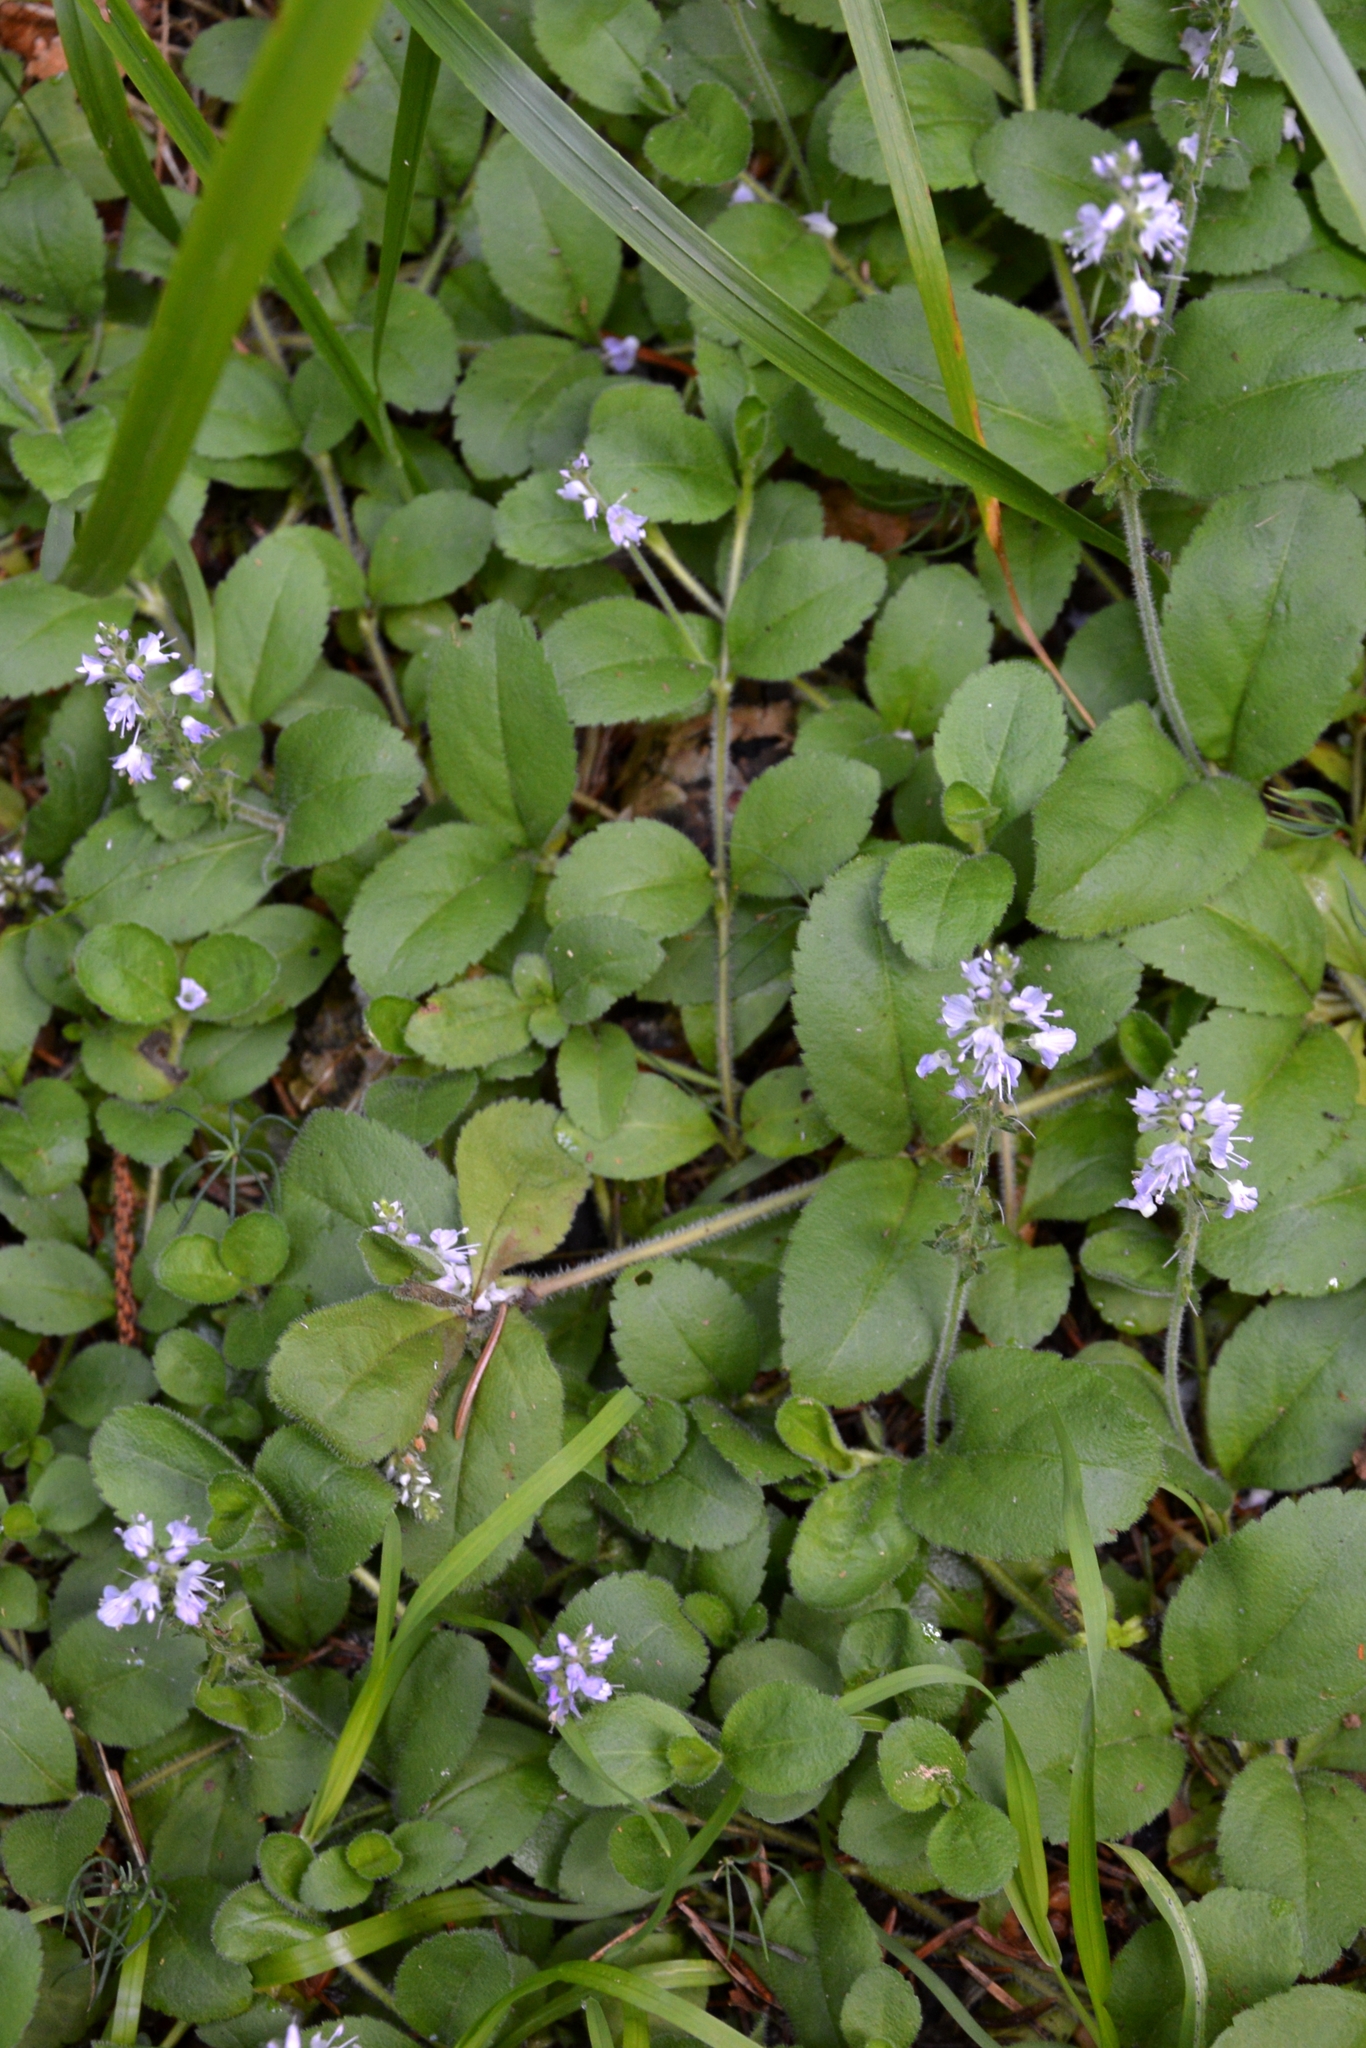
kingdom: Plantae
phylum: Tracheophyta
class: Magnoliopsida
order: Lamiales
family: Plantaginaceae
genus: Veronica
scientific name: Veronica officinalis
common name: Common speedwell
